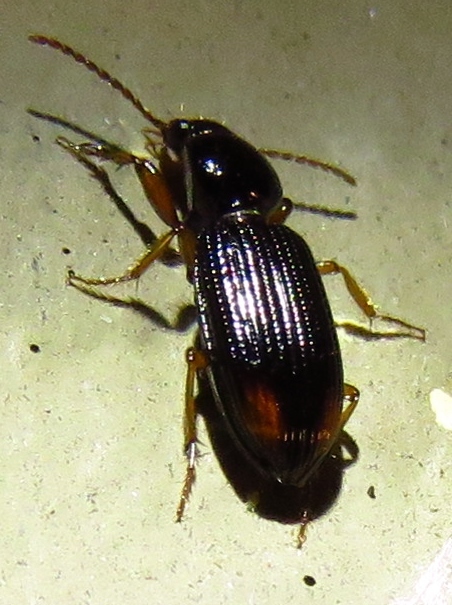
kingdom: Animalia
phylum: Arthropoda
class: Insecta
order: Coleoptera
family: Carabidae
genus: Aspidoglossa
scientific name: Aspidoglossa subangulata
